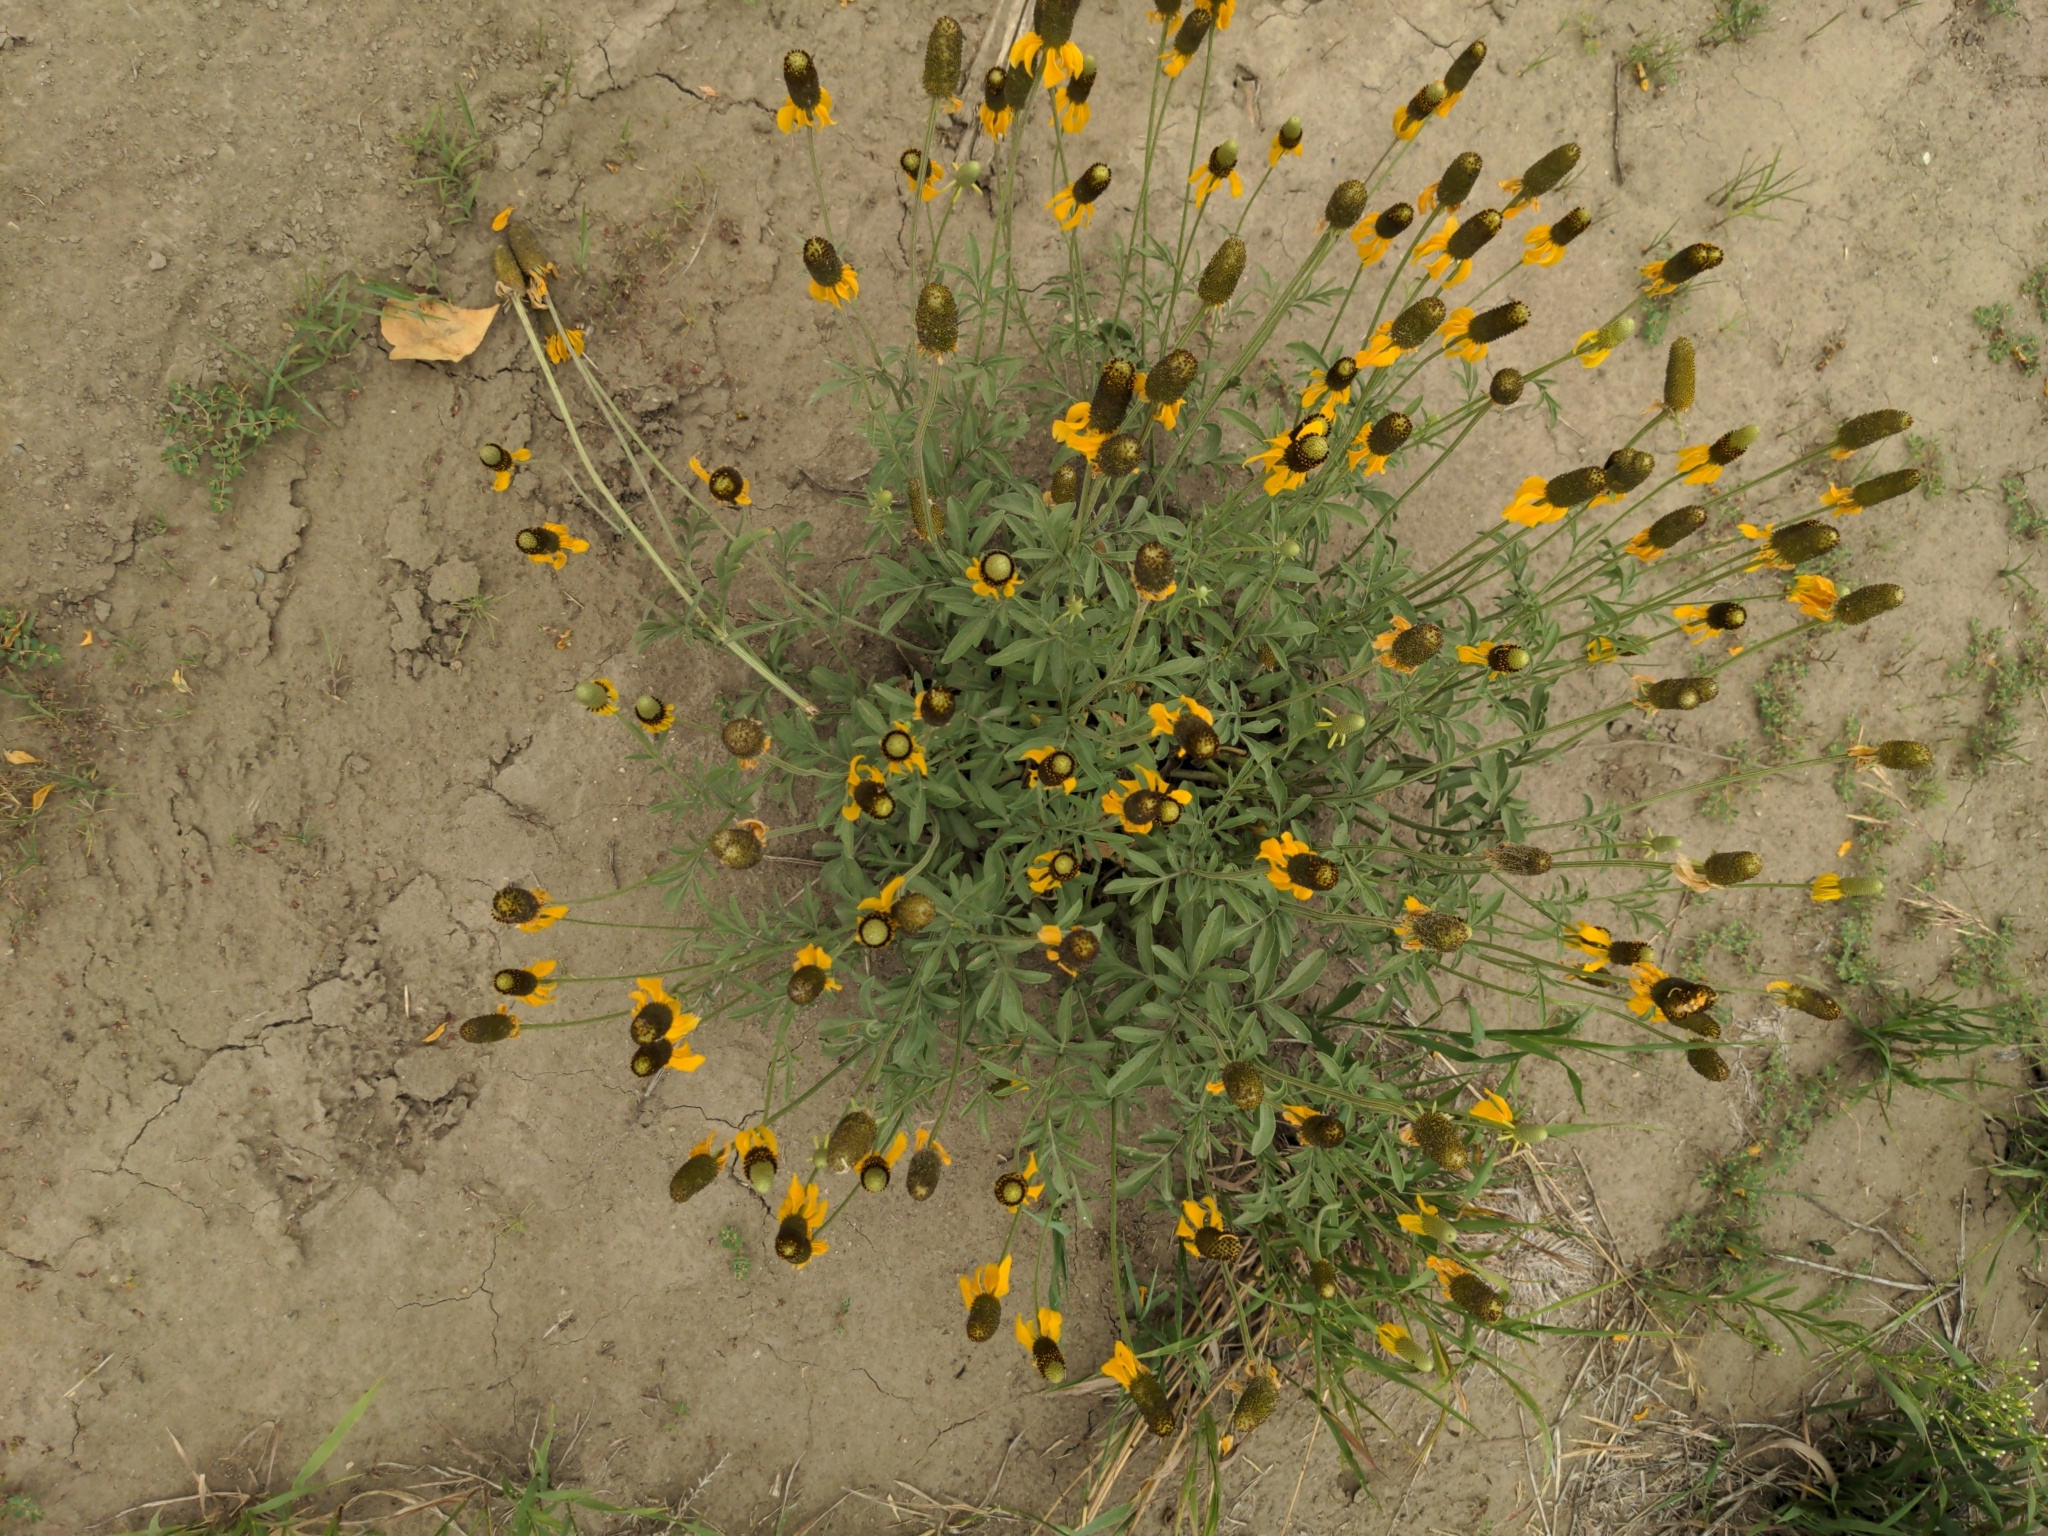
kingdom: Plantae
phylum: Tracheophyta
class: Magnoliopsida
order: Asterales
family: Asteraceae
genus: Ratibida
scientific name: Ratibida columnifera
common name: Prairie coneflower
